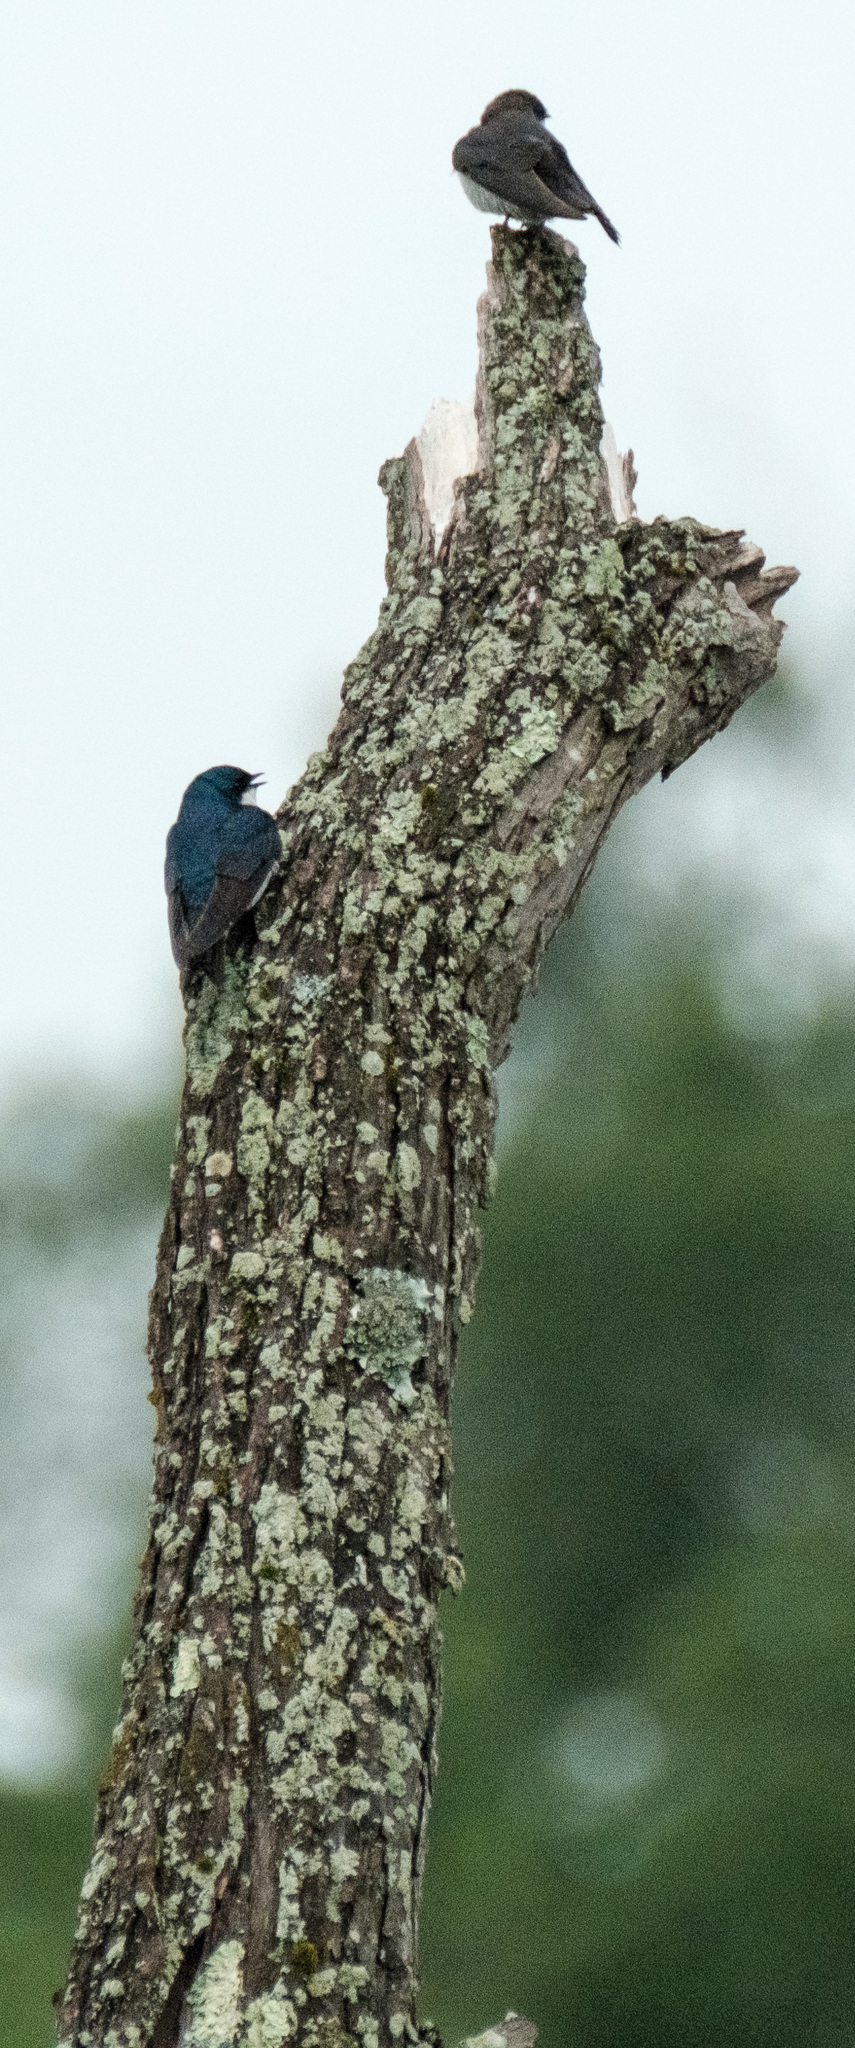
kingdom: Animalia
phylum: Chordata
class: Aves
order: Passeriformes
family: Hirundinidae
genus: Tachycineta
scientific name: Tachycineta bicolor
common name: Tree swallow
